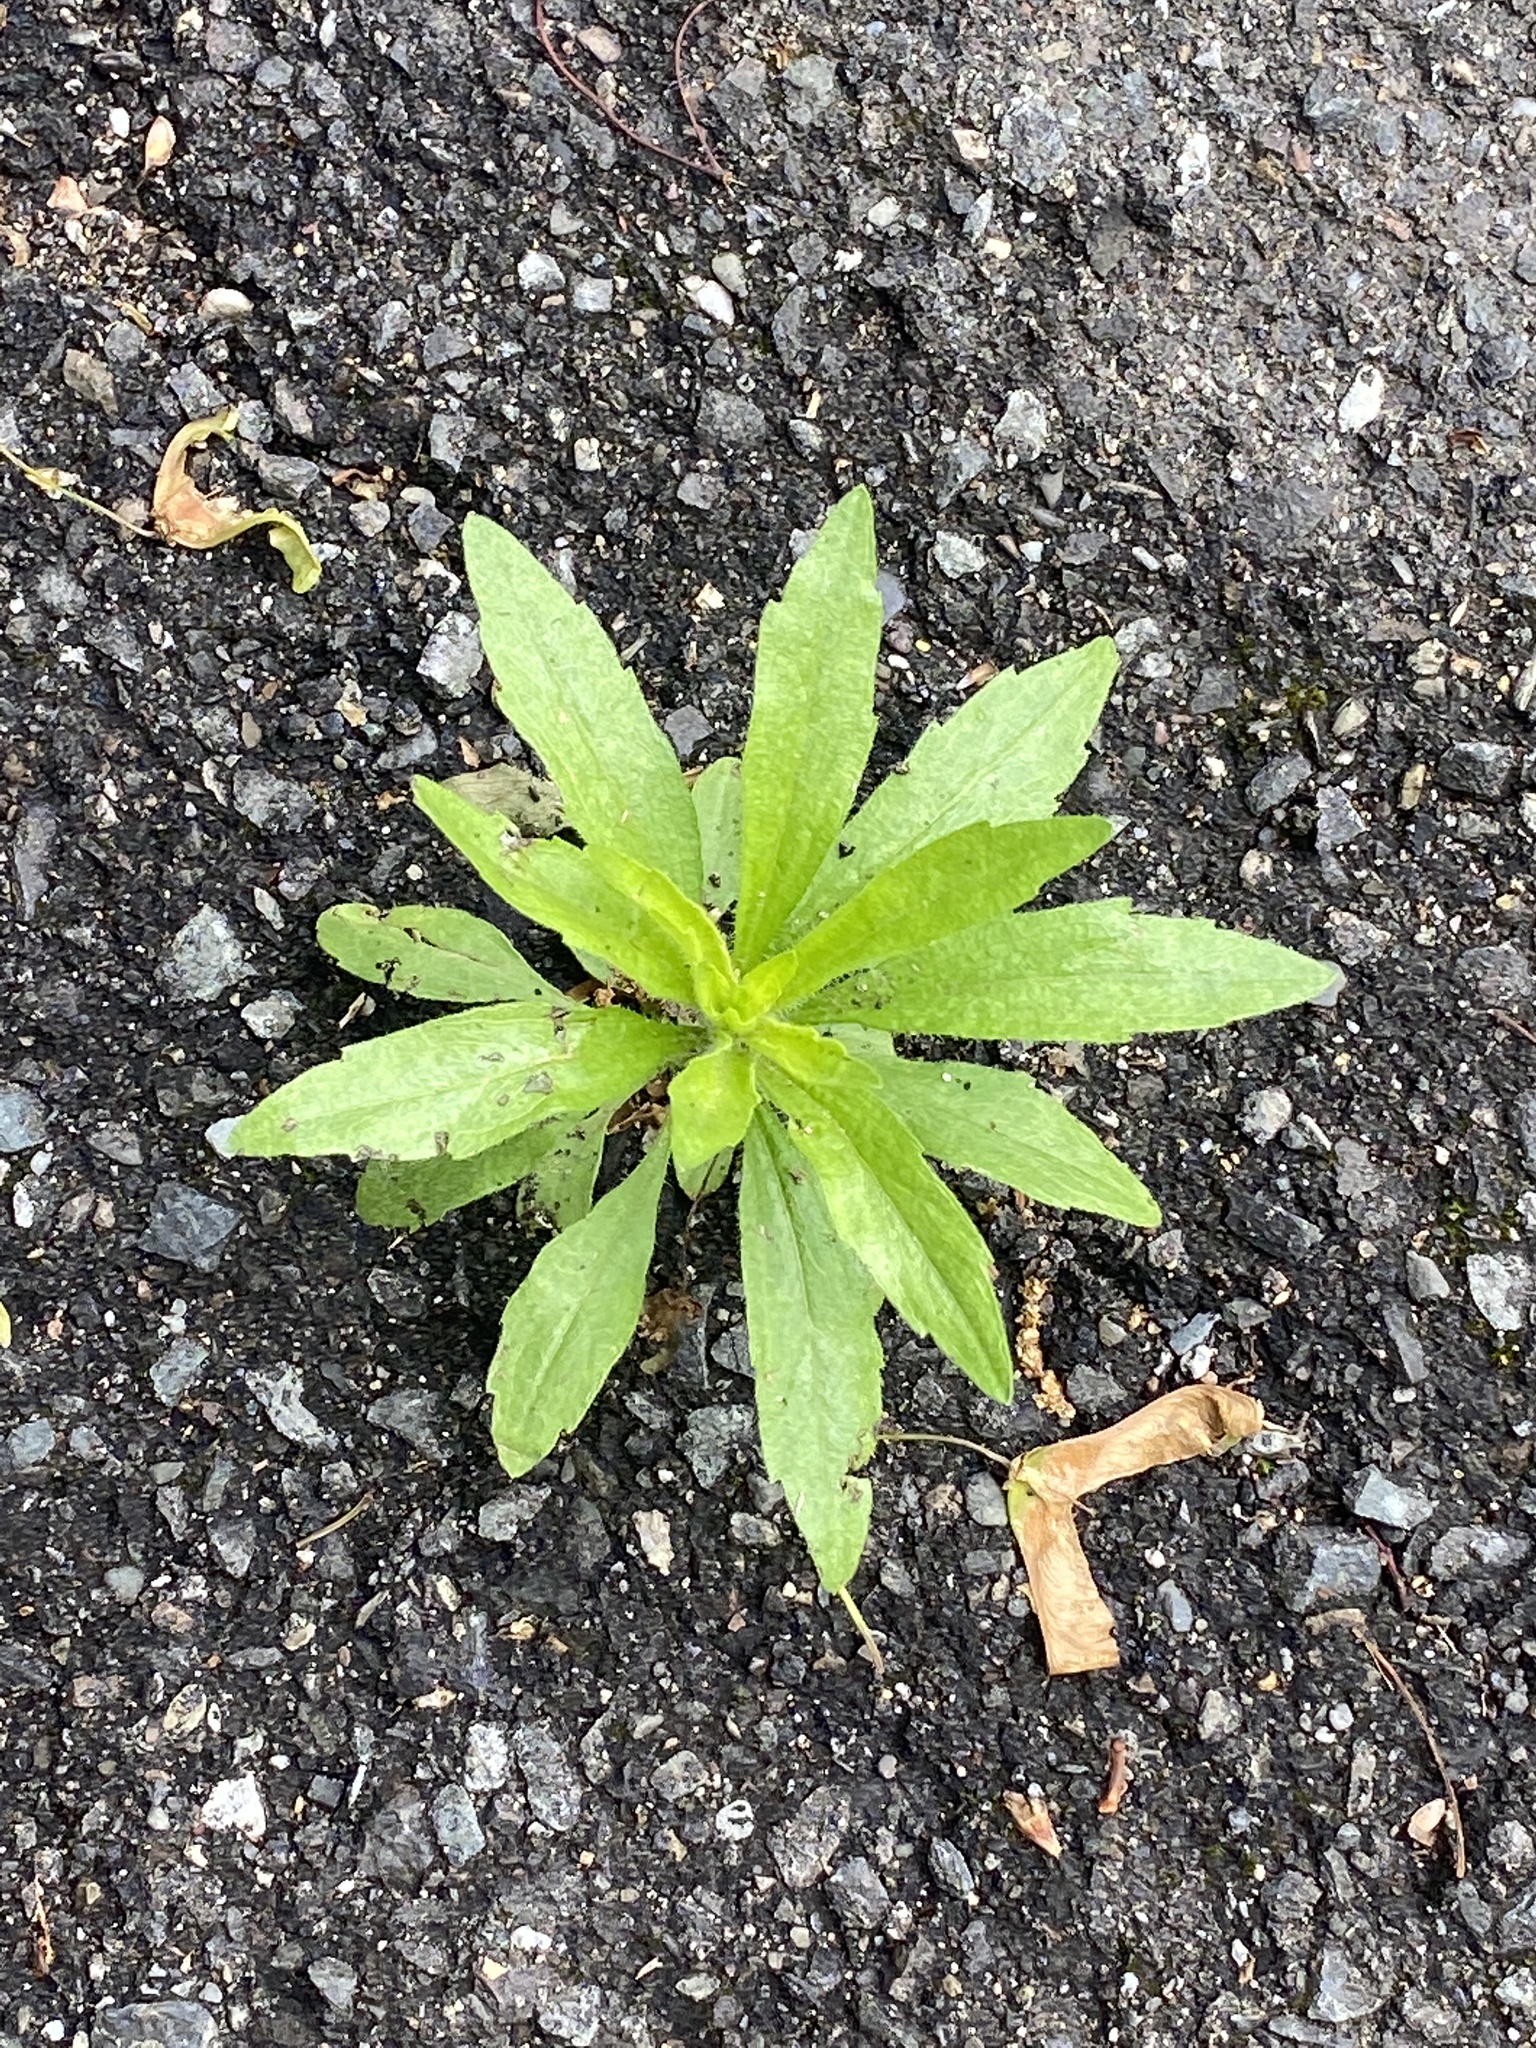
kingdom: Plantae
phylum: Tracheophyta
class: Magnoliopsida
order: Asterales
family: Asteraceae
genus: Erigeron
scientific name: Erigeron canadensis
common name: Canadian fleabane
